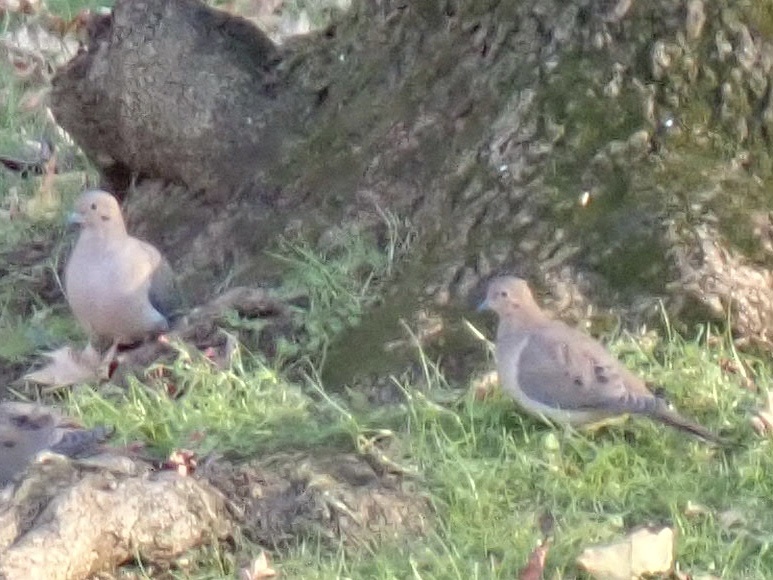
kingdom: Animalia
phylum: Chordata
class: Aves
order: Columbiformes
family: Columbidae
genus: Zenaida
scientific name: Zenaida macroura
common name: Mourning dove
